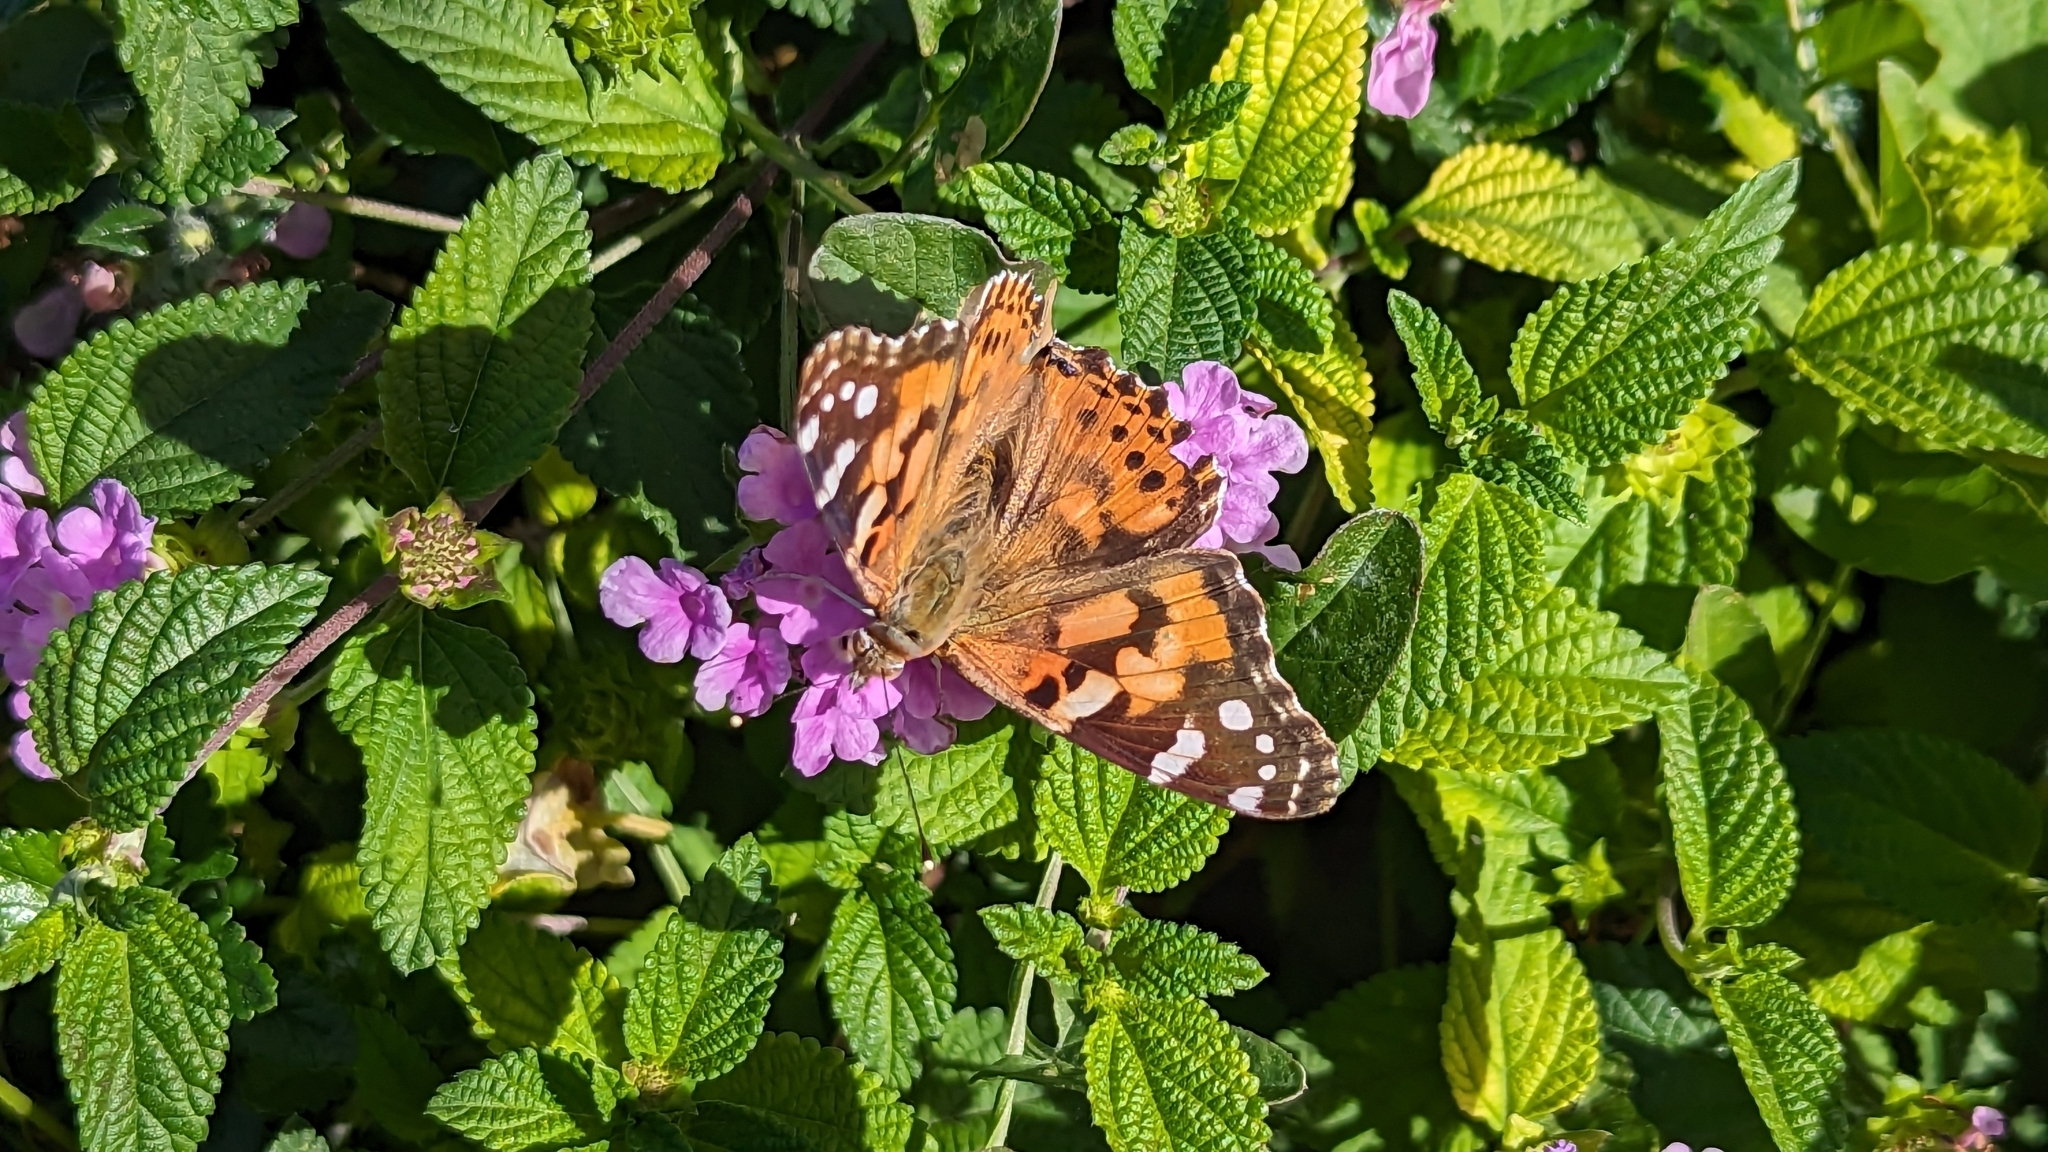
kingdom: Animalia
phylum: Arthropoda
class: Insecta
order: Lepidoptera
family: Nymphalidae
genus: Vanessa
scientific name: Vanessa cardui
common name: Painted lady
